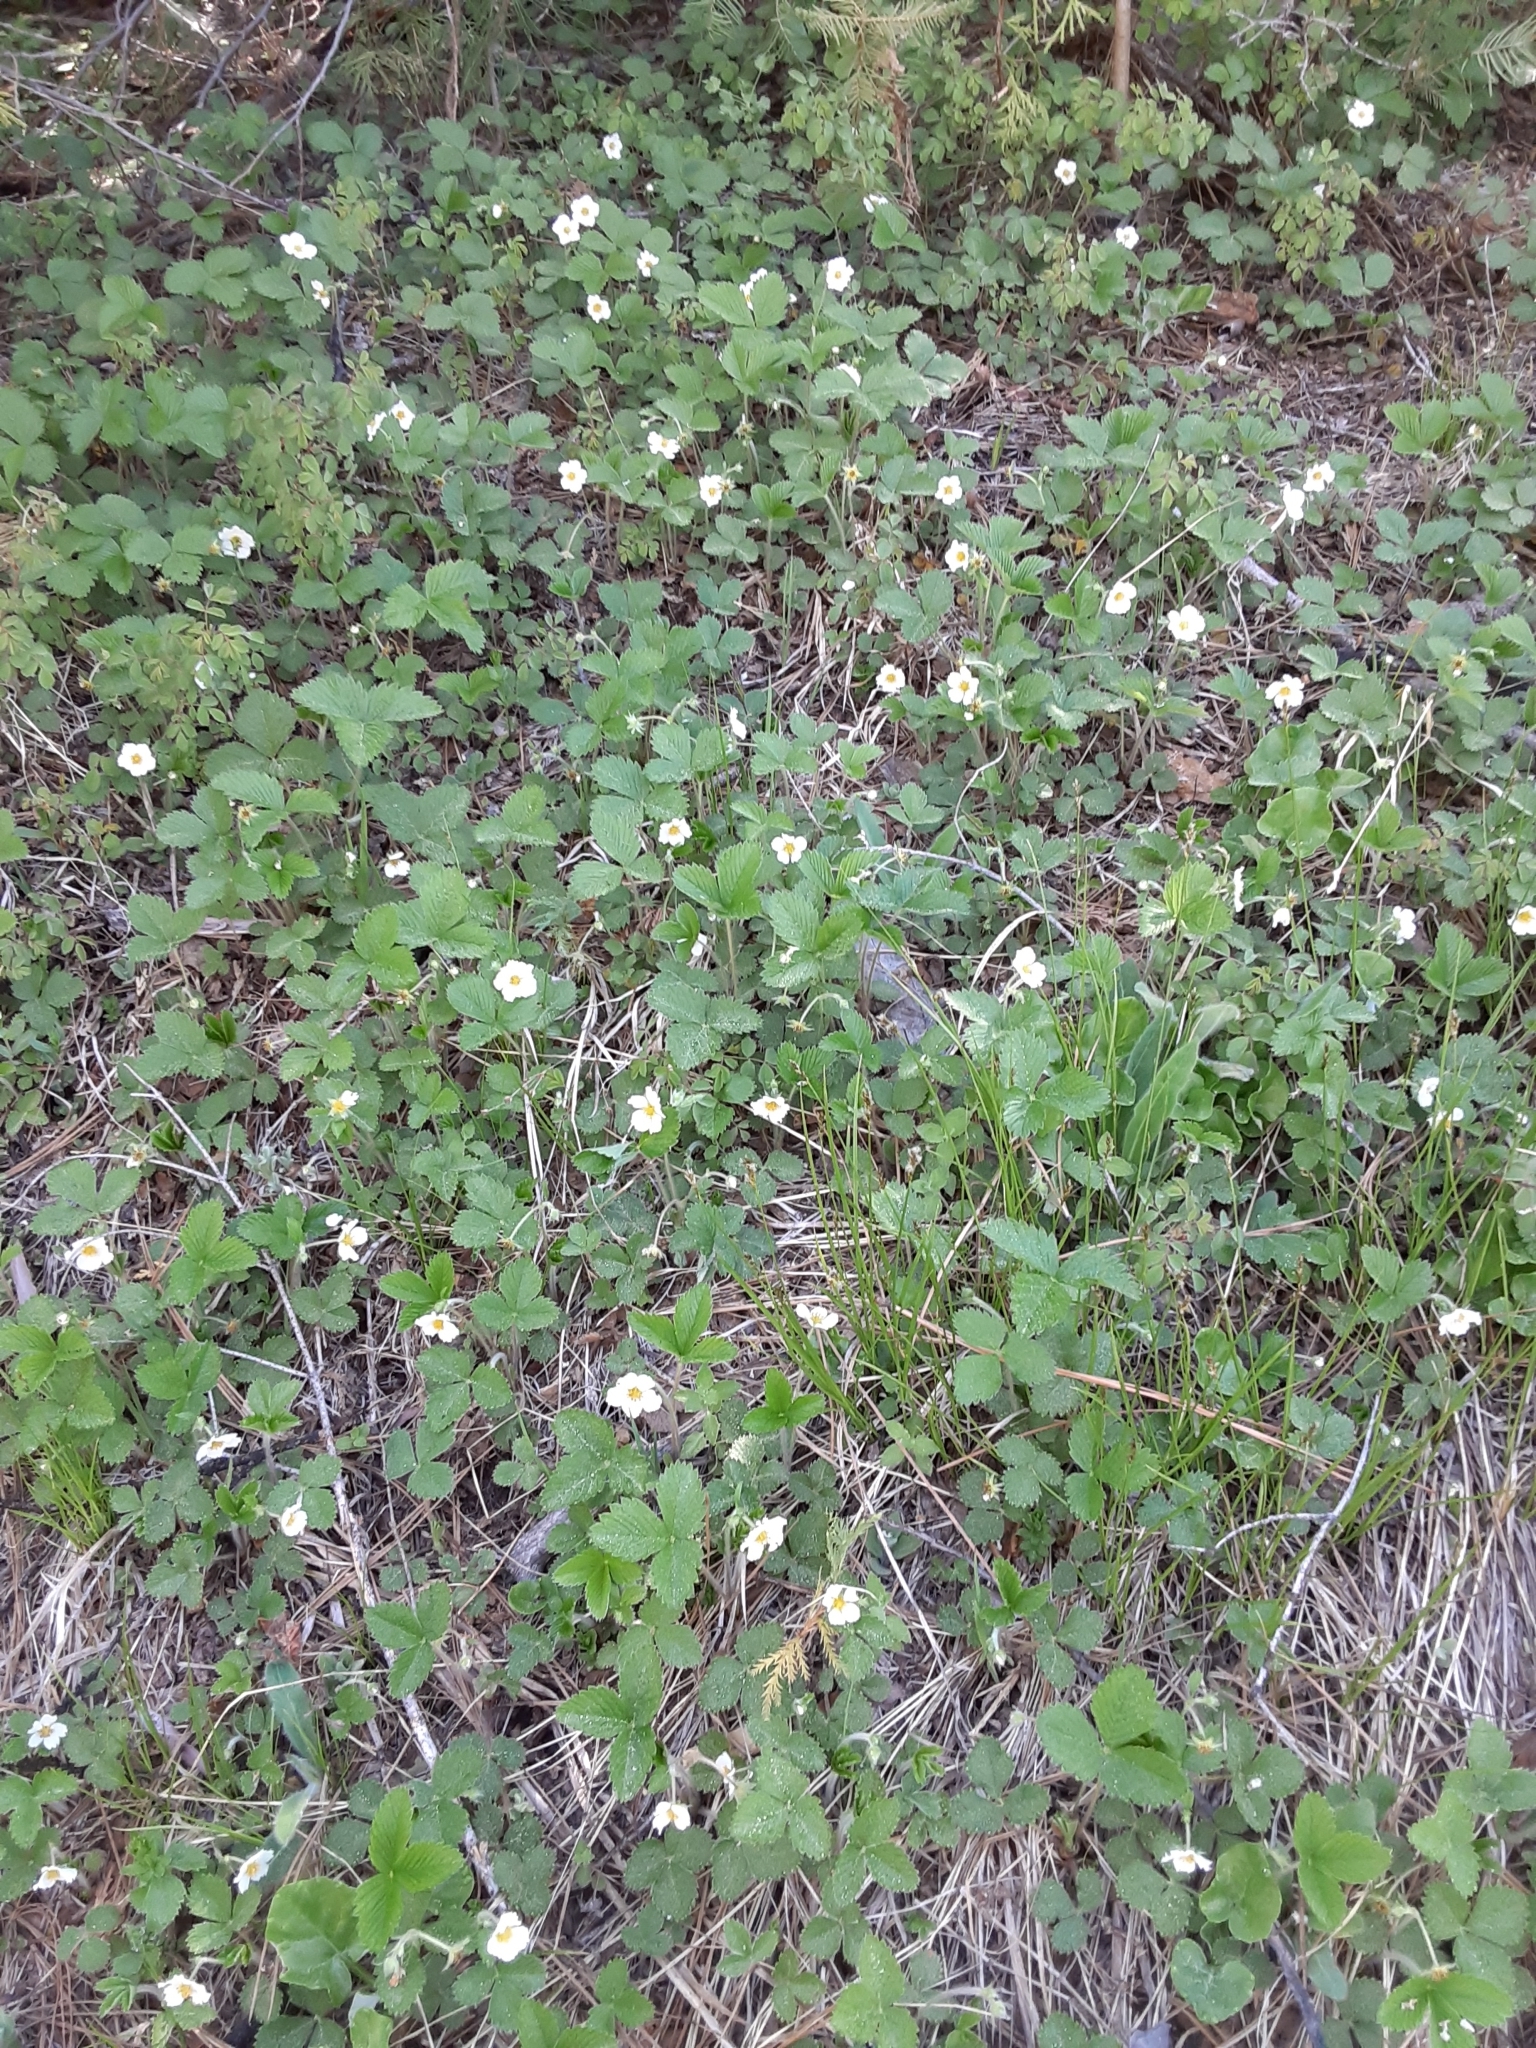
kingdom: Plantae
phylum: Tracheophyta
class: Magnoliopsida
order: Rosales
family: Rosaceae
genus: Fragaria
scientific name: Fragaria vesca
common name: Wild strawberry
